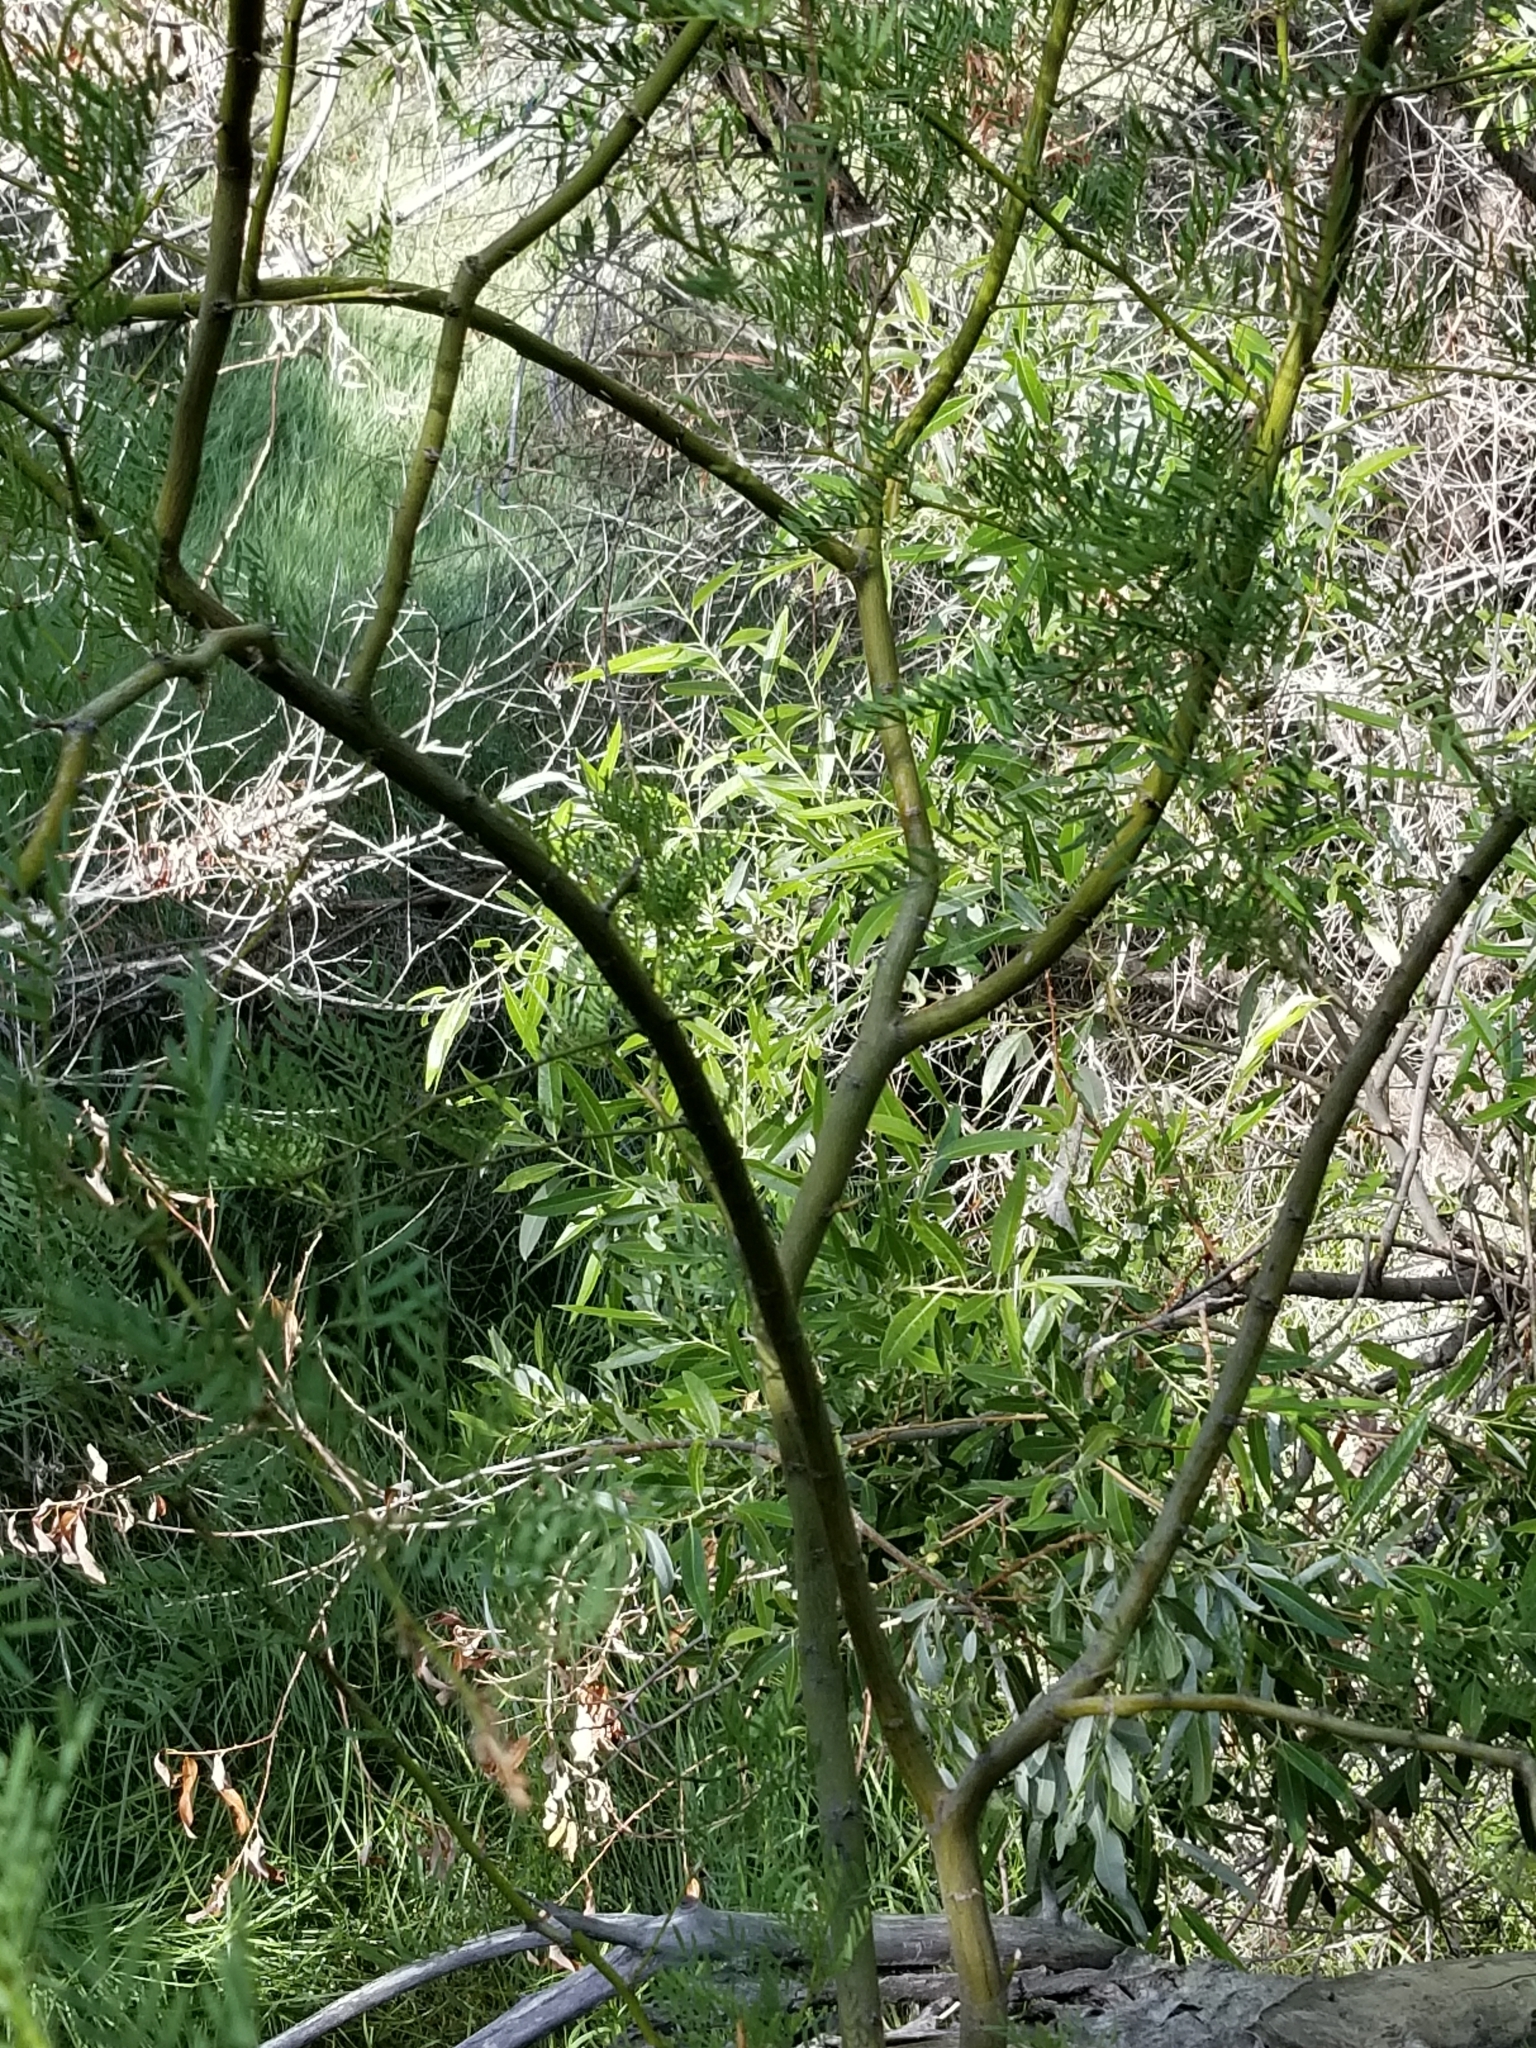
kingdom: Plantae
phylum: Tracheophyta
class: Magnoliopsida
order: Fabales
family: Fabaceae
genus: Prosopis
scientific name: Prosopis pubescens
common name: Screw-bean
